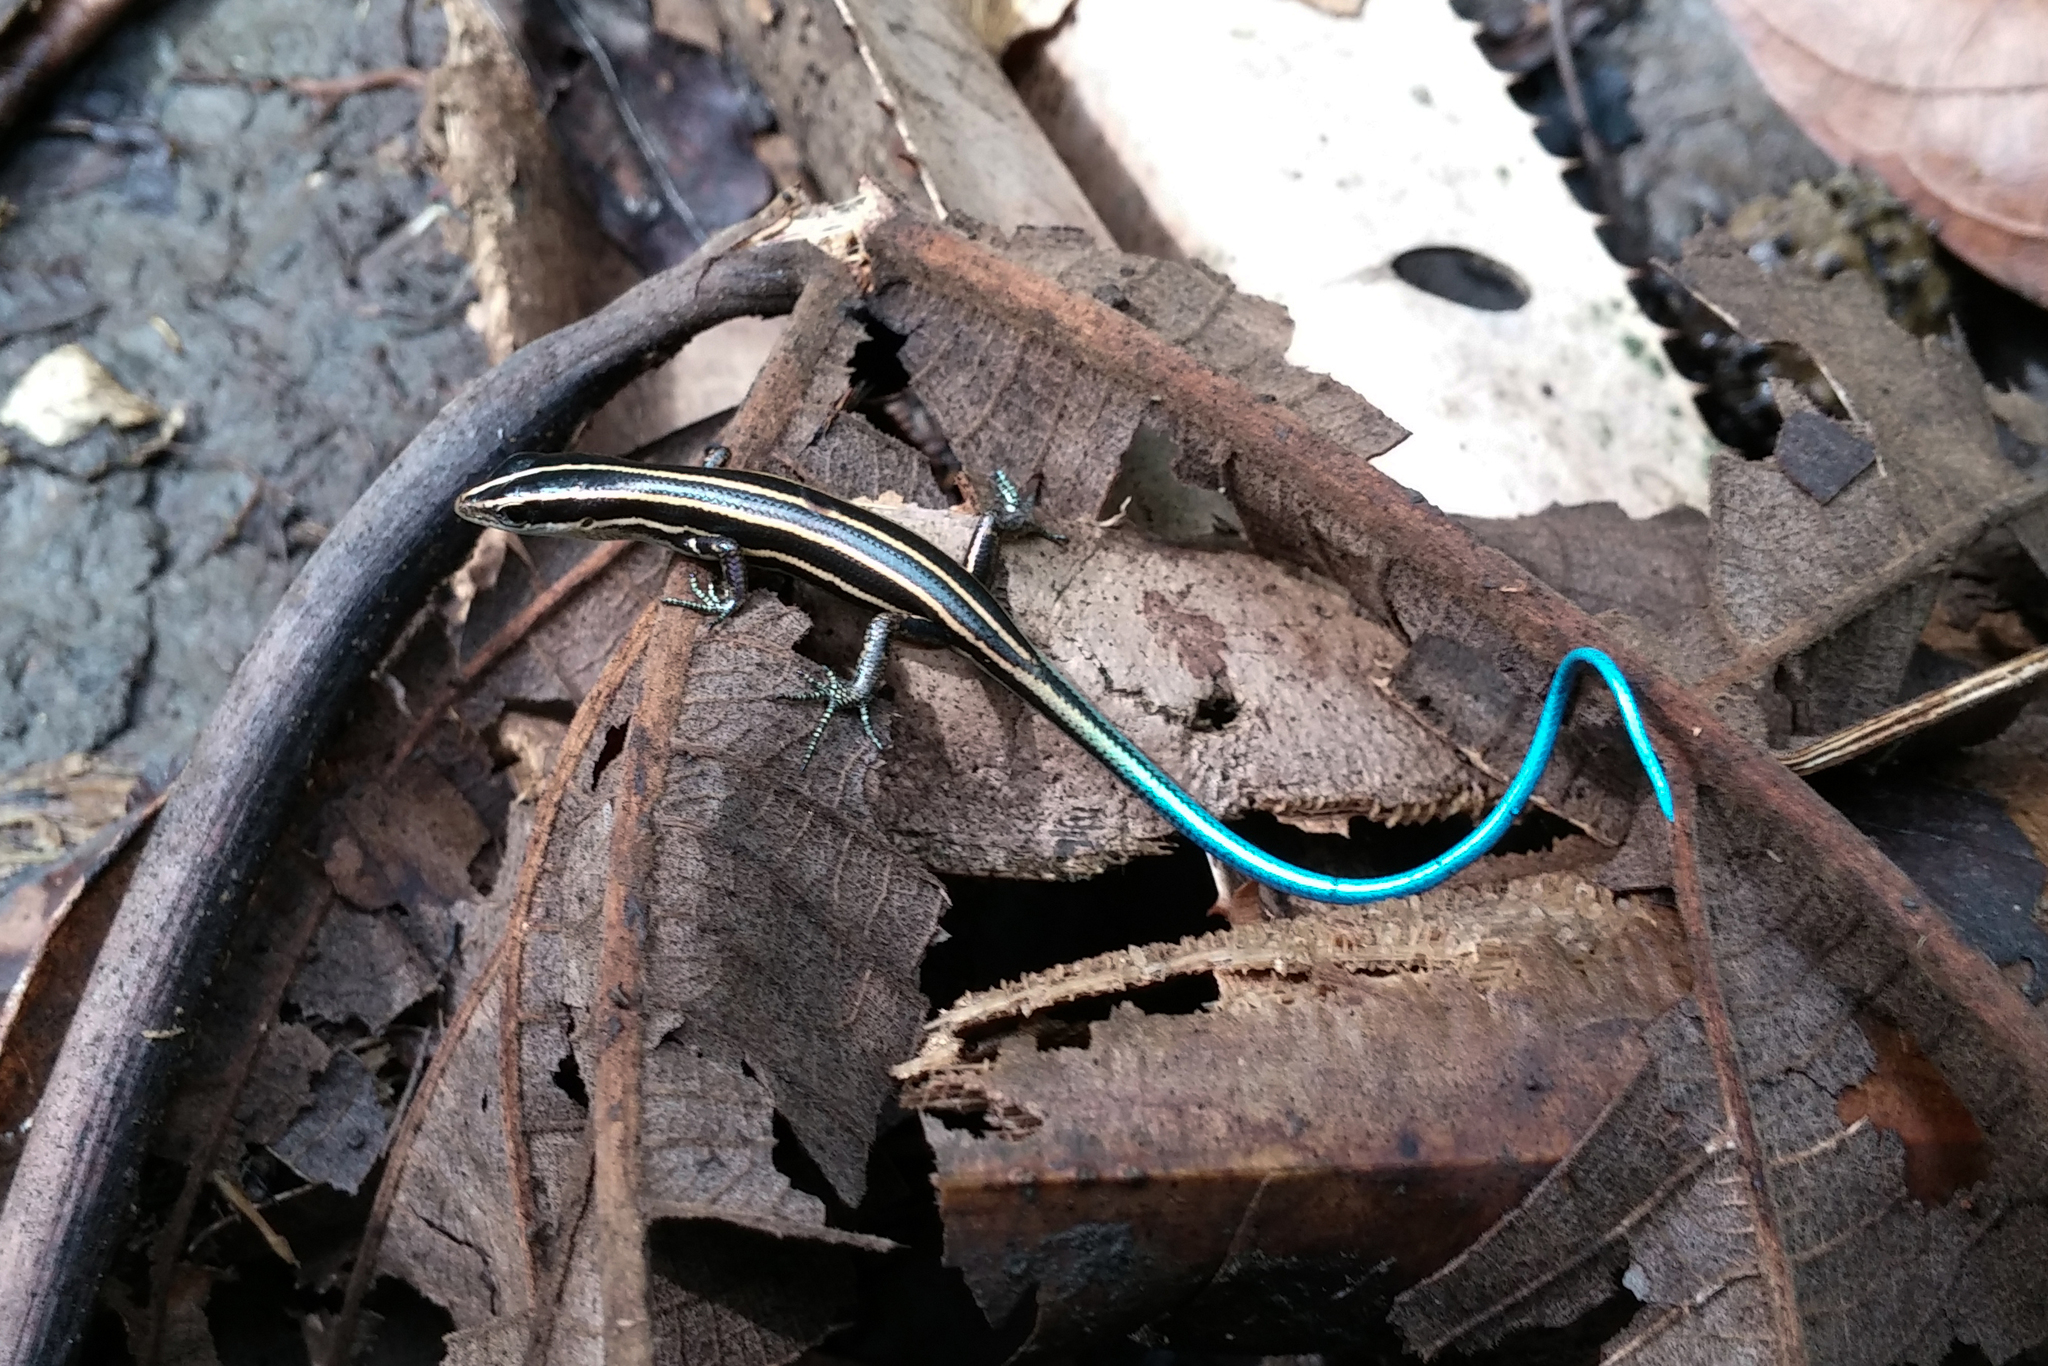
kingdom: Animalia
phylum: Chordata
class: Squamata
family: Scincidae
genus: Emoia
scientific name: Emoia caeruleocauda
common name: Pacific bluetail skink
